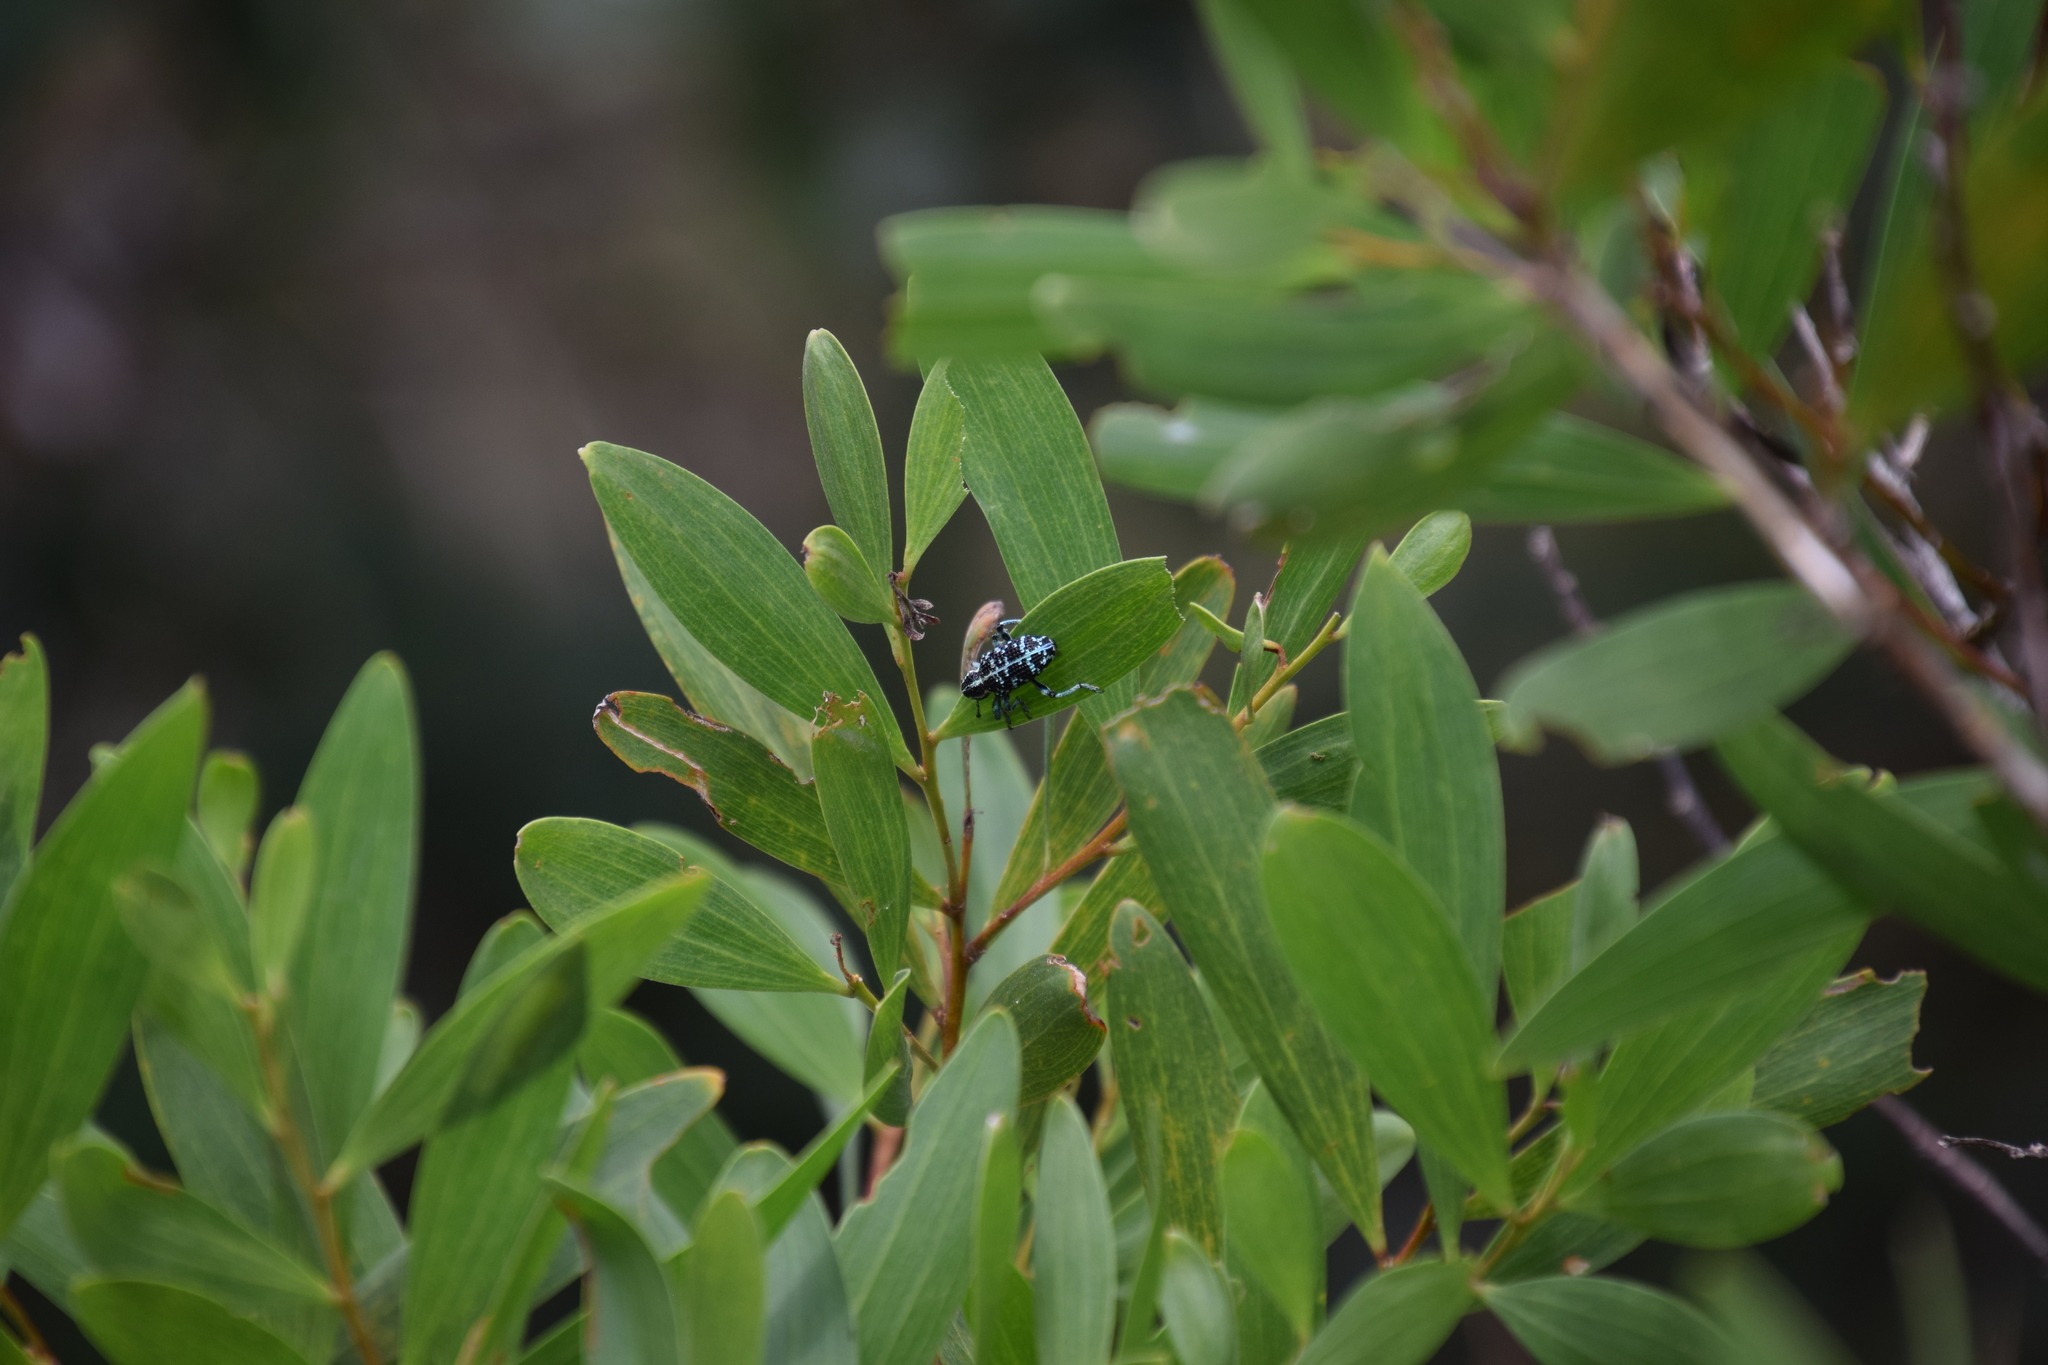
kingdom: Animalia
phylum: Arthropoda
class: Insecta
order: Coleoptera
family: Curculionidae
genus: Chrysolopus
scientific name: Chrysolopus spectabilis
